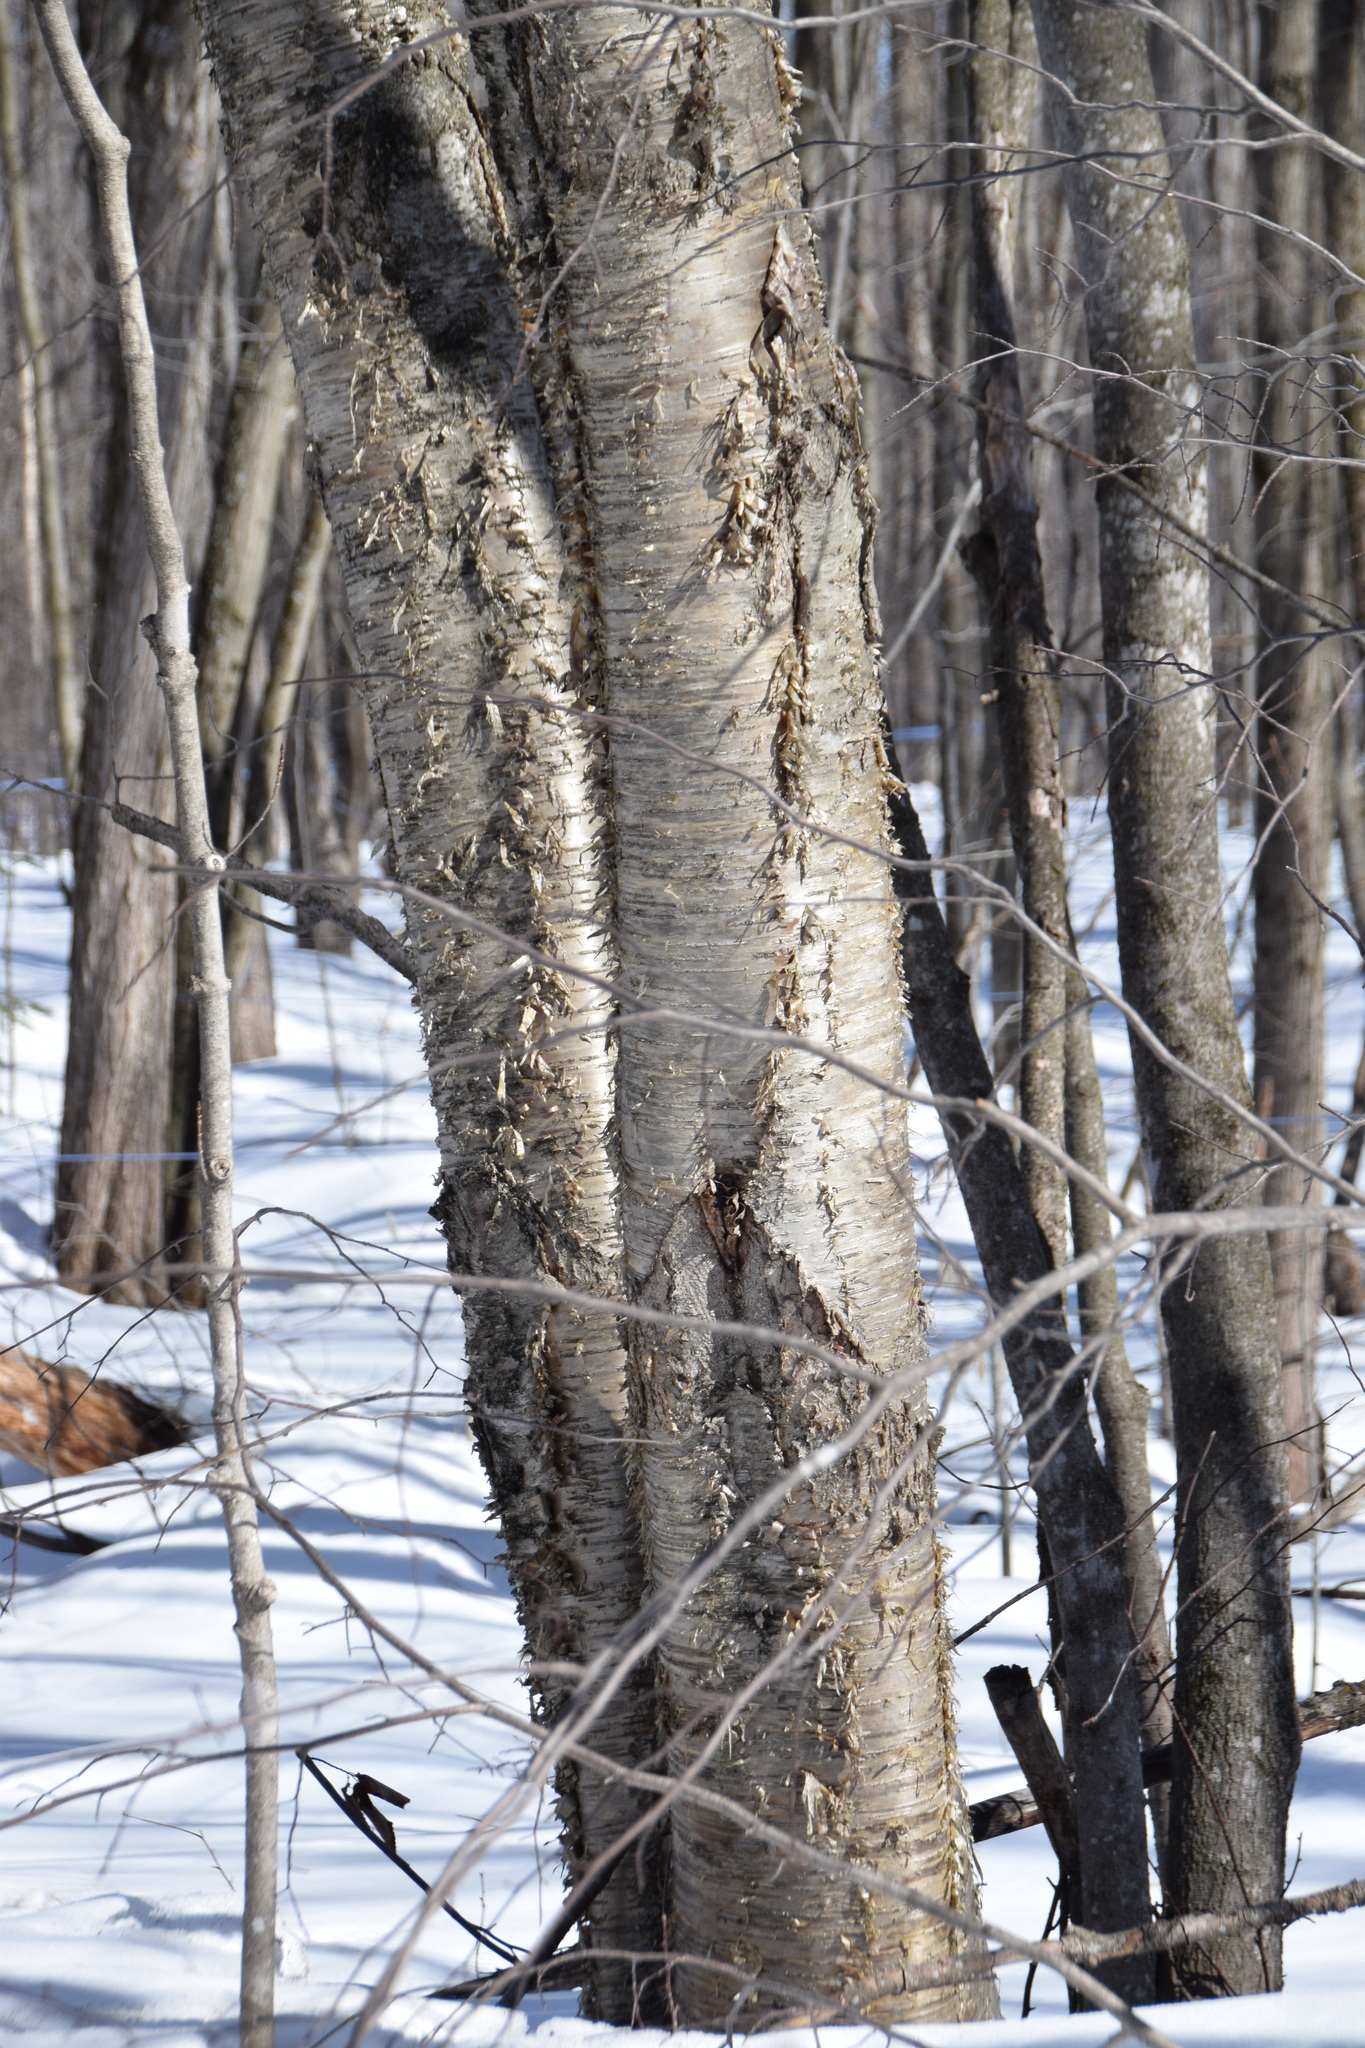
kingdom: Plantae
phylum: Tracheophyta
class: Magnoliopsida
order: Fagales
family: Betulaceae
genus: Betula
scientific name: Betula alleghaniensis
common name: Yellow birch
